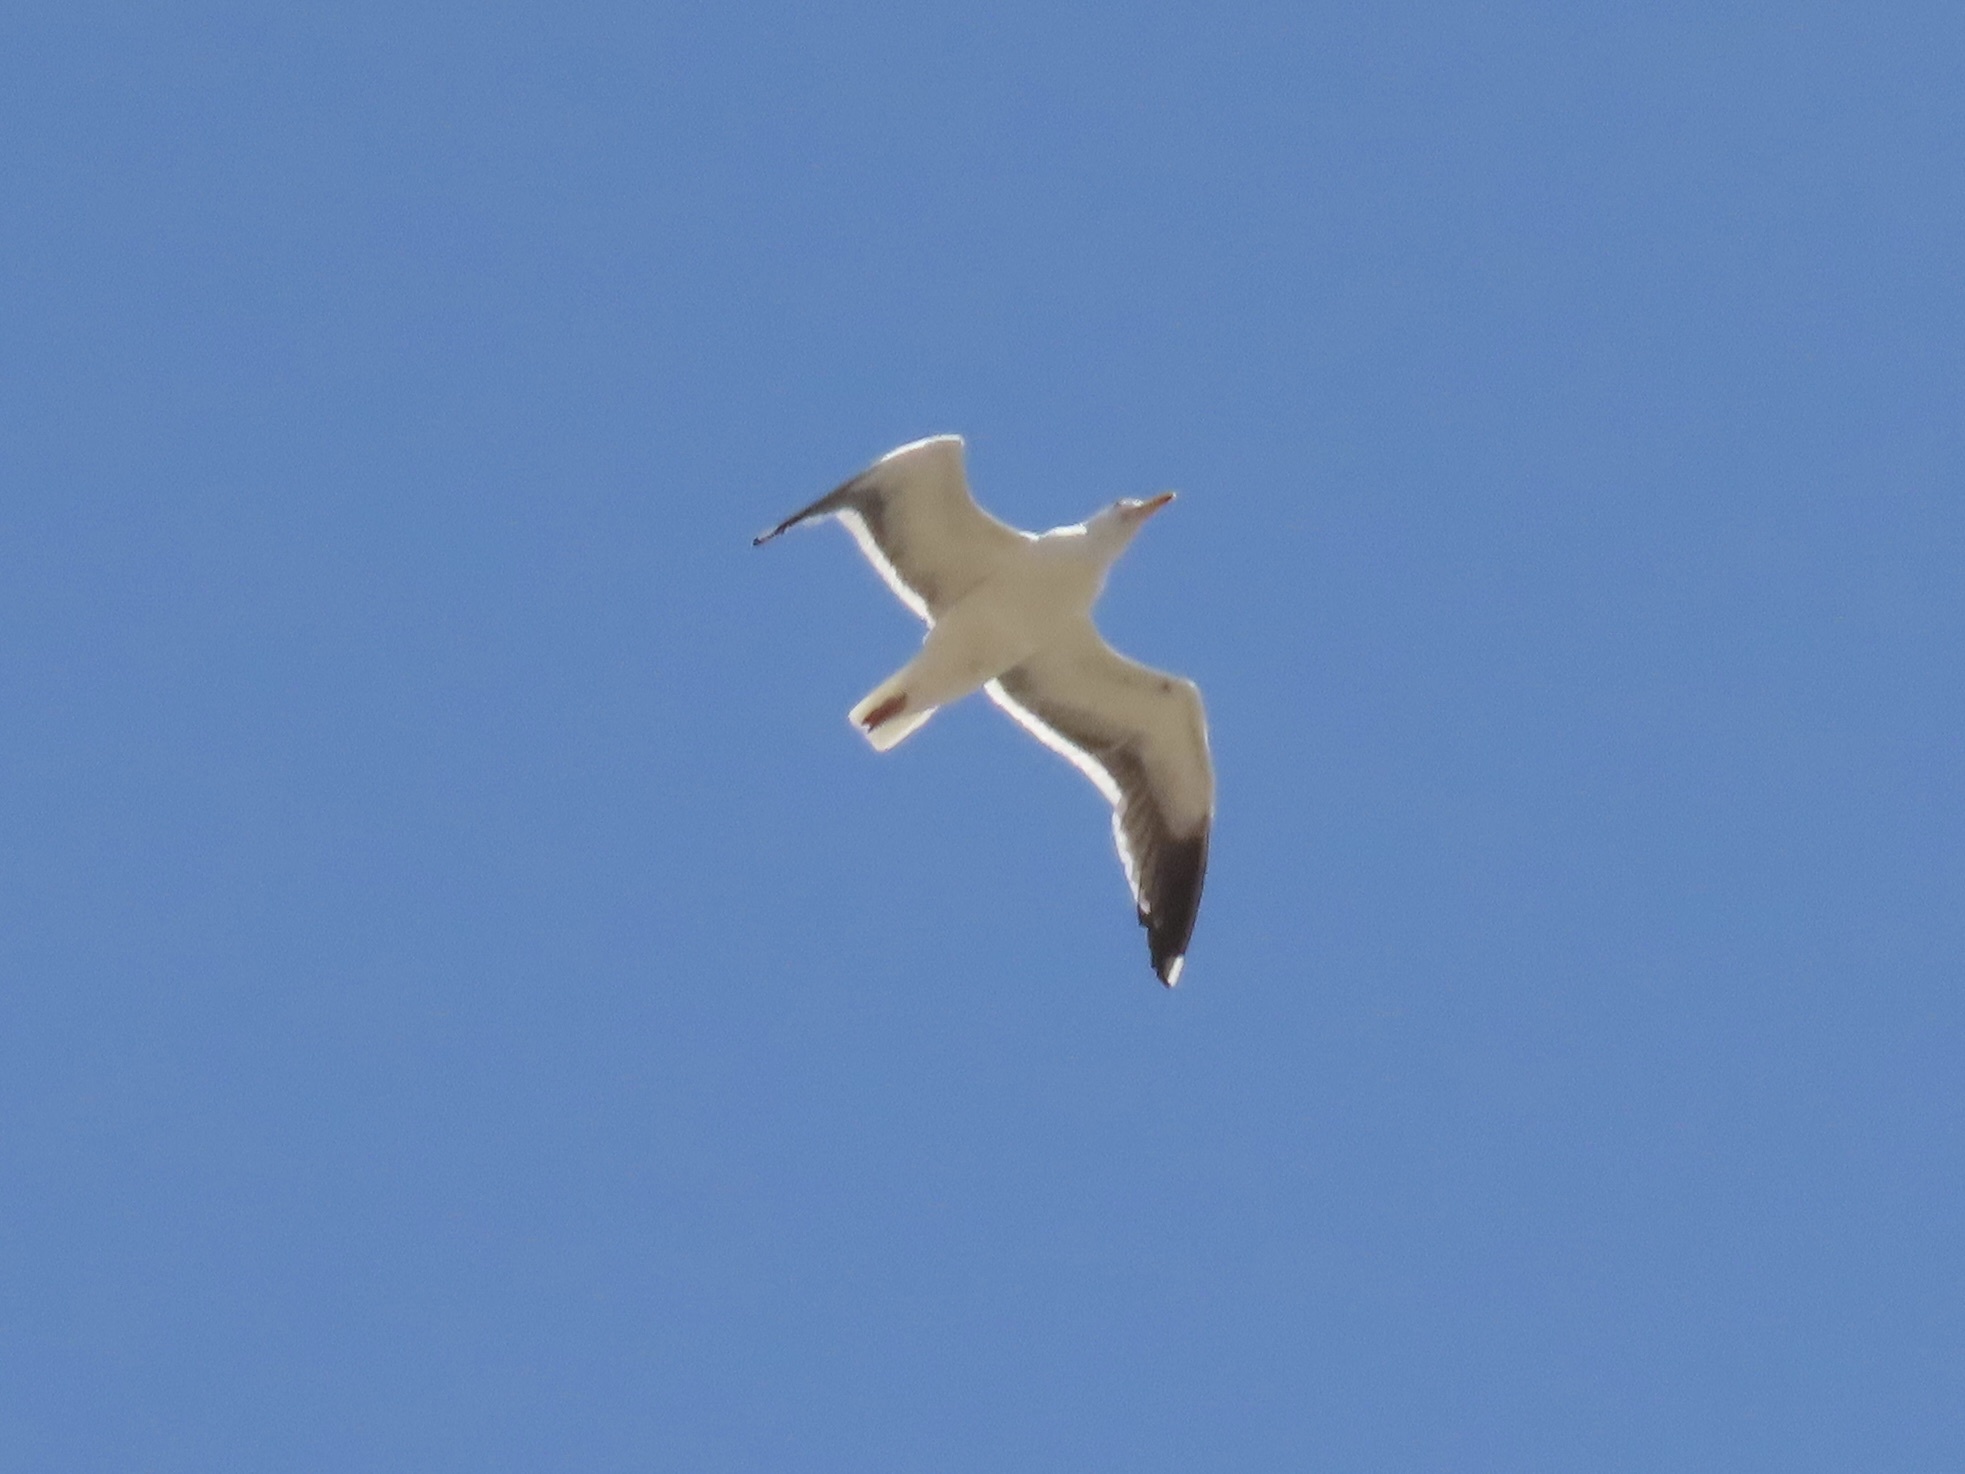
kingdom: Animalia
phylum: Chordata
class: Aves
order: Charadriiformes
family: Laridae
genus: Larus
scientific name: Larus occidentalis
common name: Western gull
